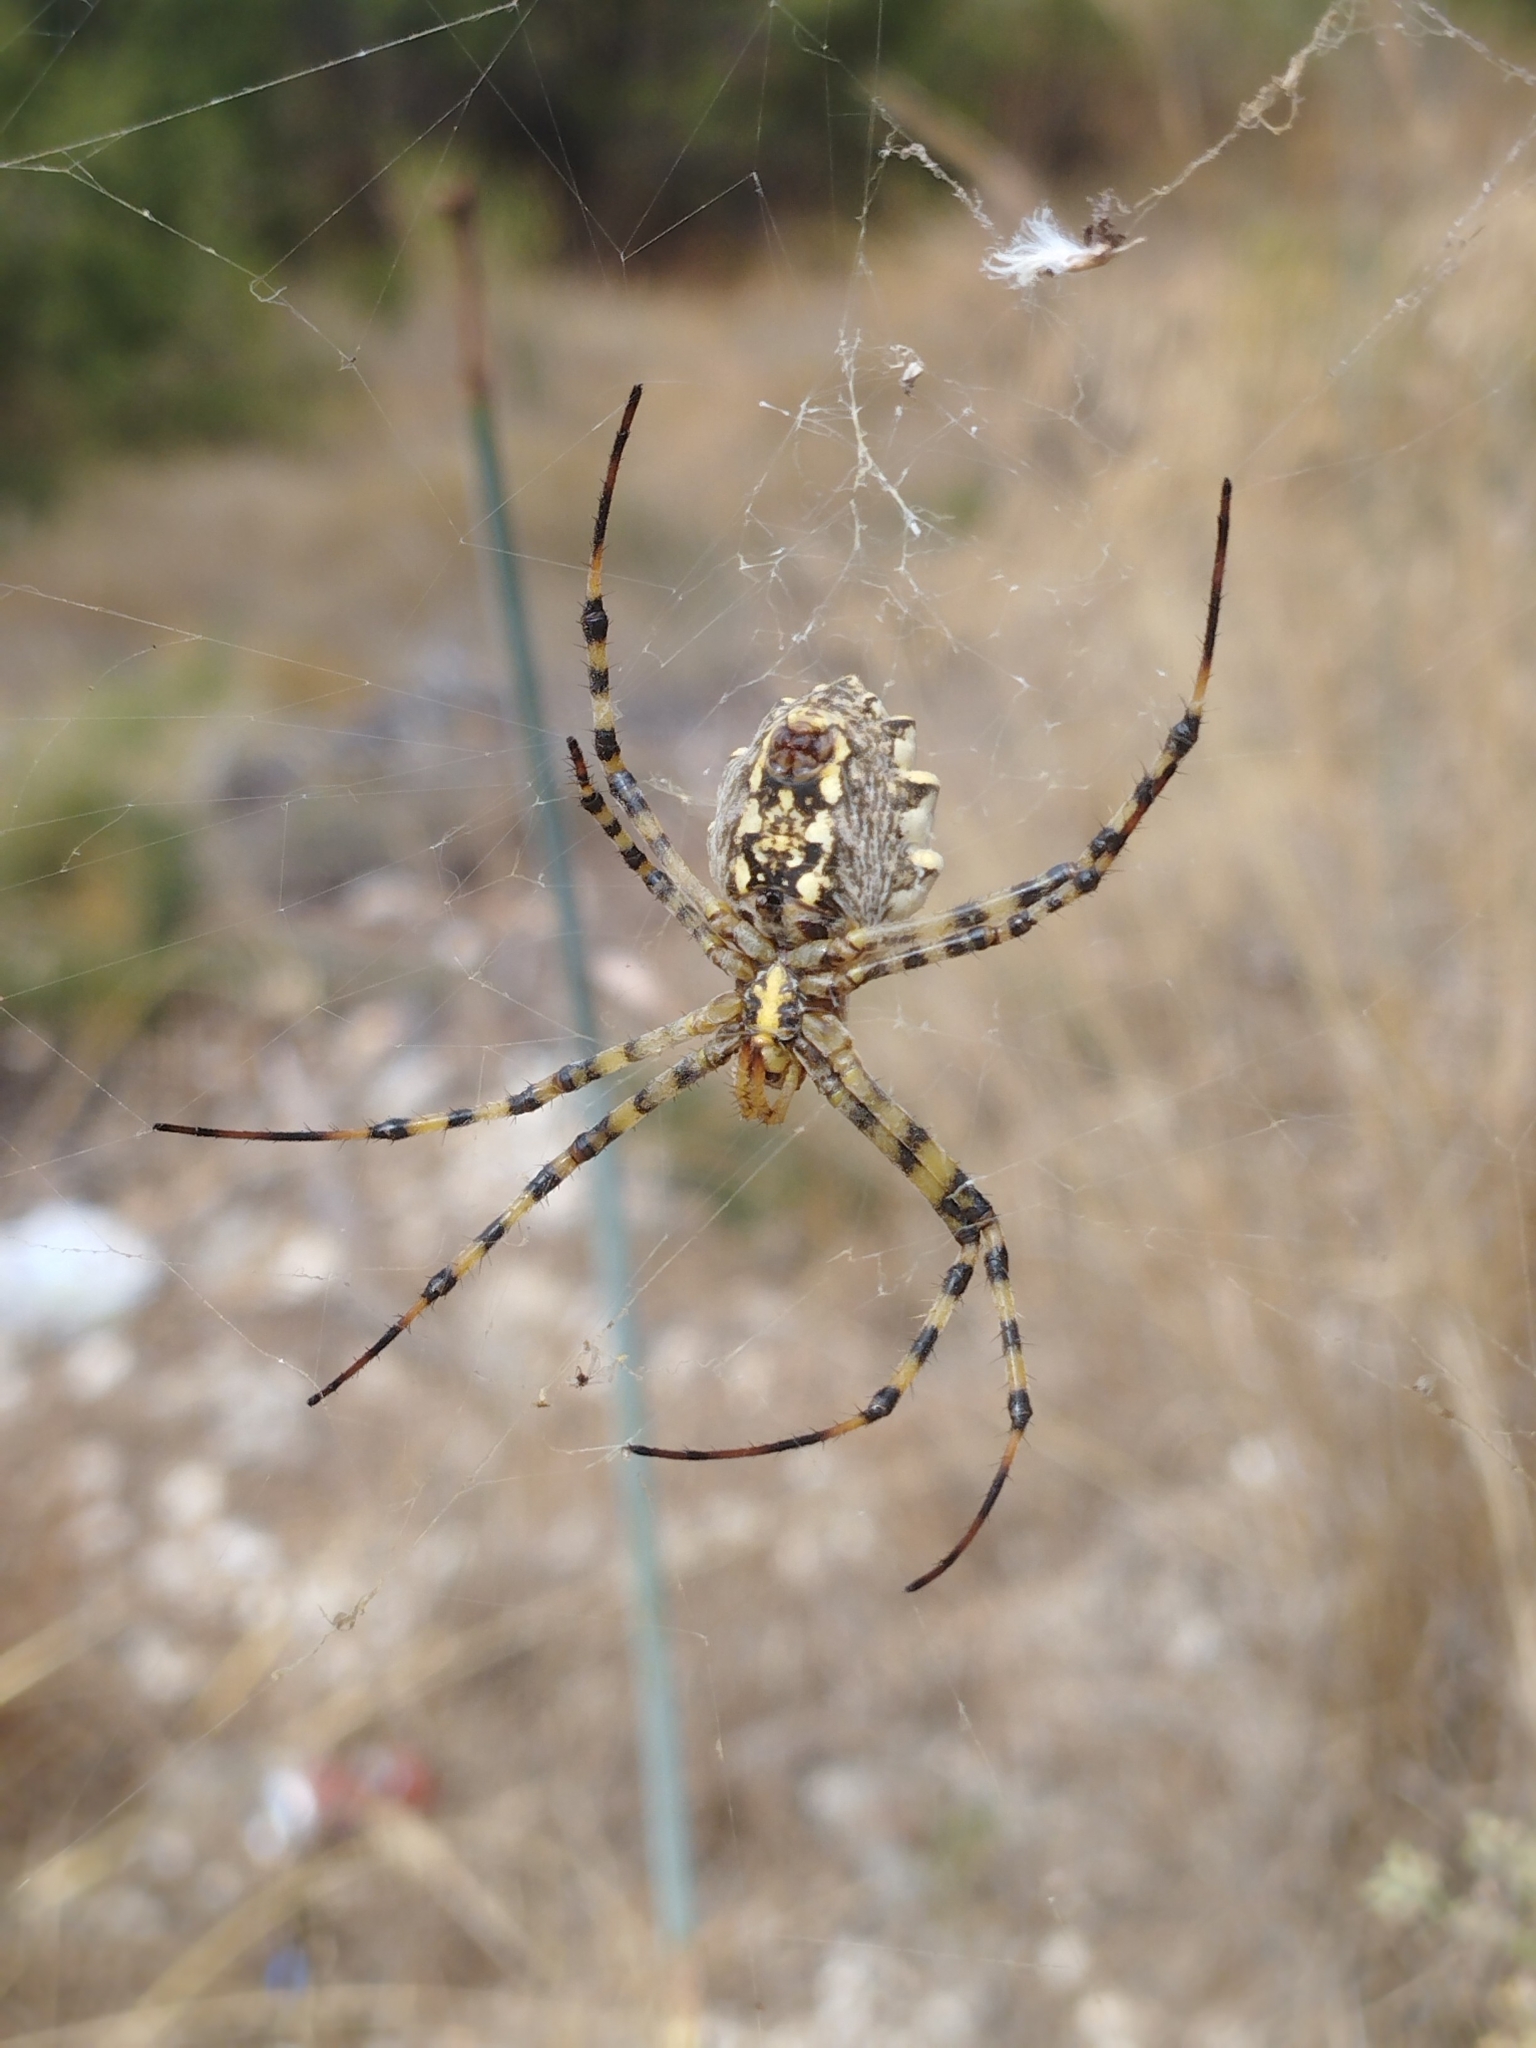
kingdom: Animalia
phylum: Arthropoda
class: Arachnida
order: Araneae
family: Araneidae
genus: Argiope
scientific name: Argiope lobata
